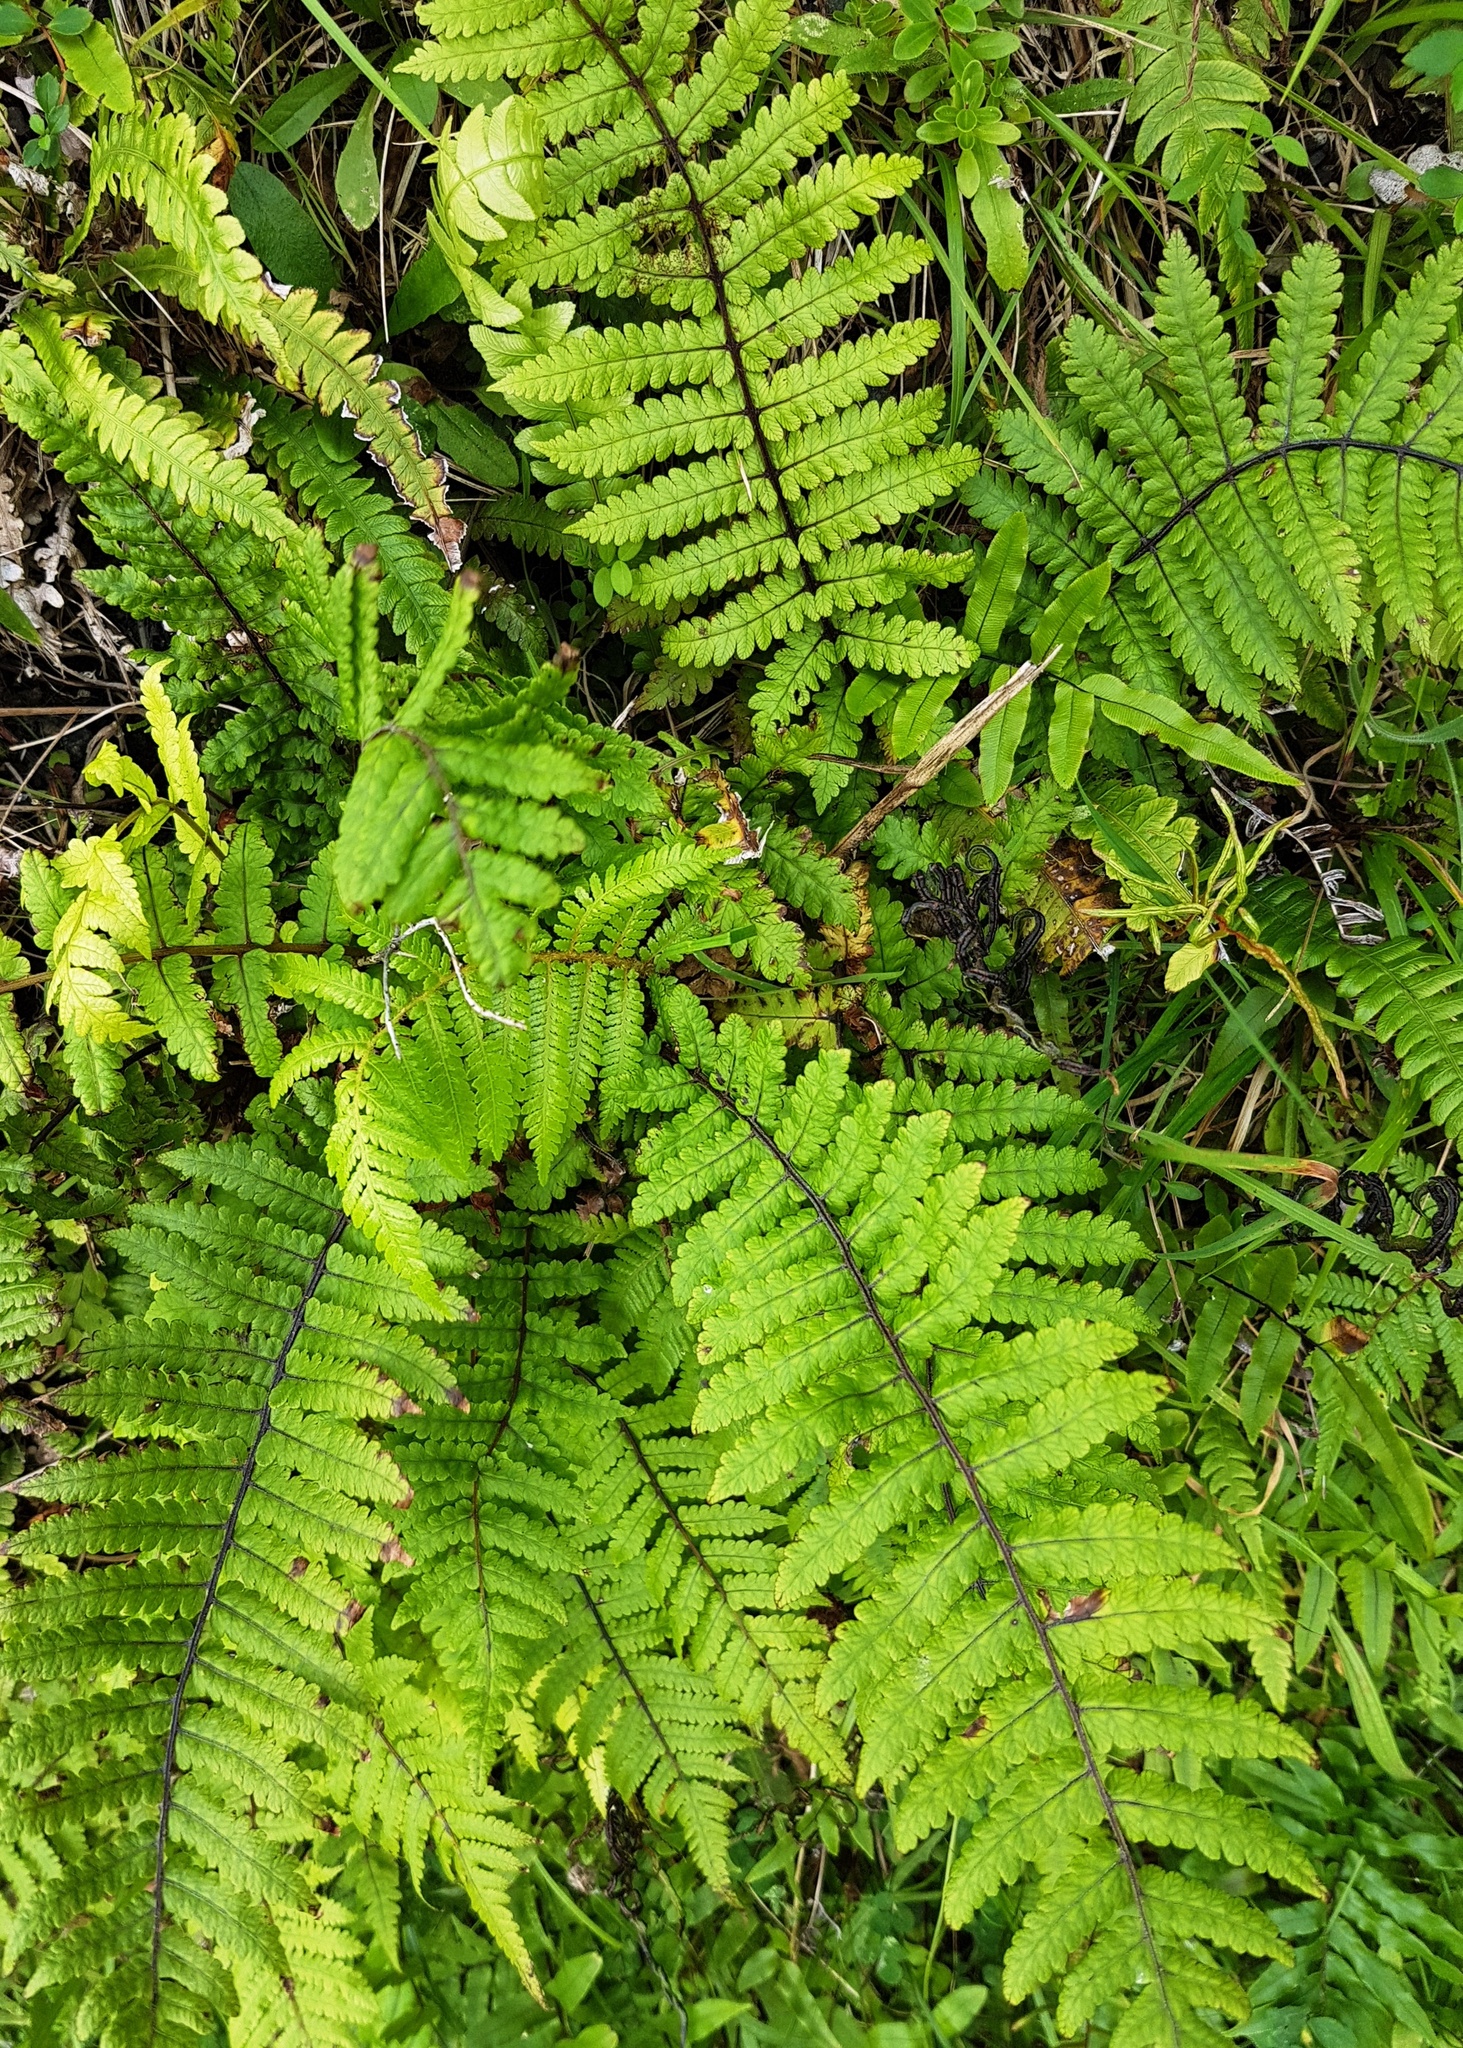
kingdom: Plantae
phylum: Tracheophyta
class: Polypodiopsida
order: Polypodiales
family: Thelypteridaceae
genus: Pakau
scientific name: Pakau pennigera
